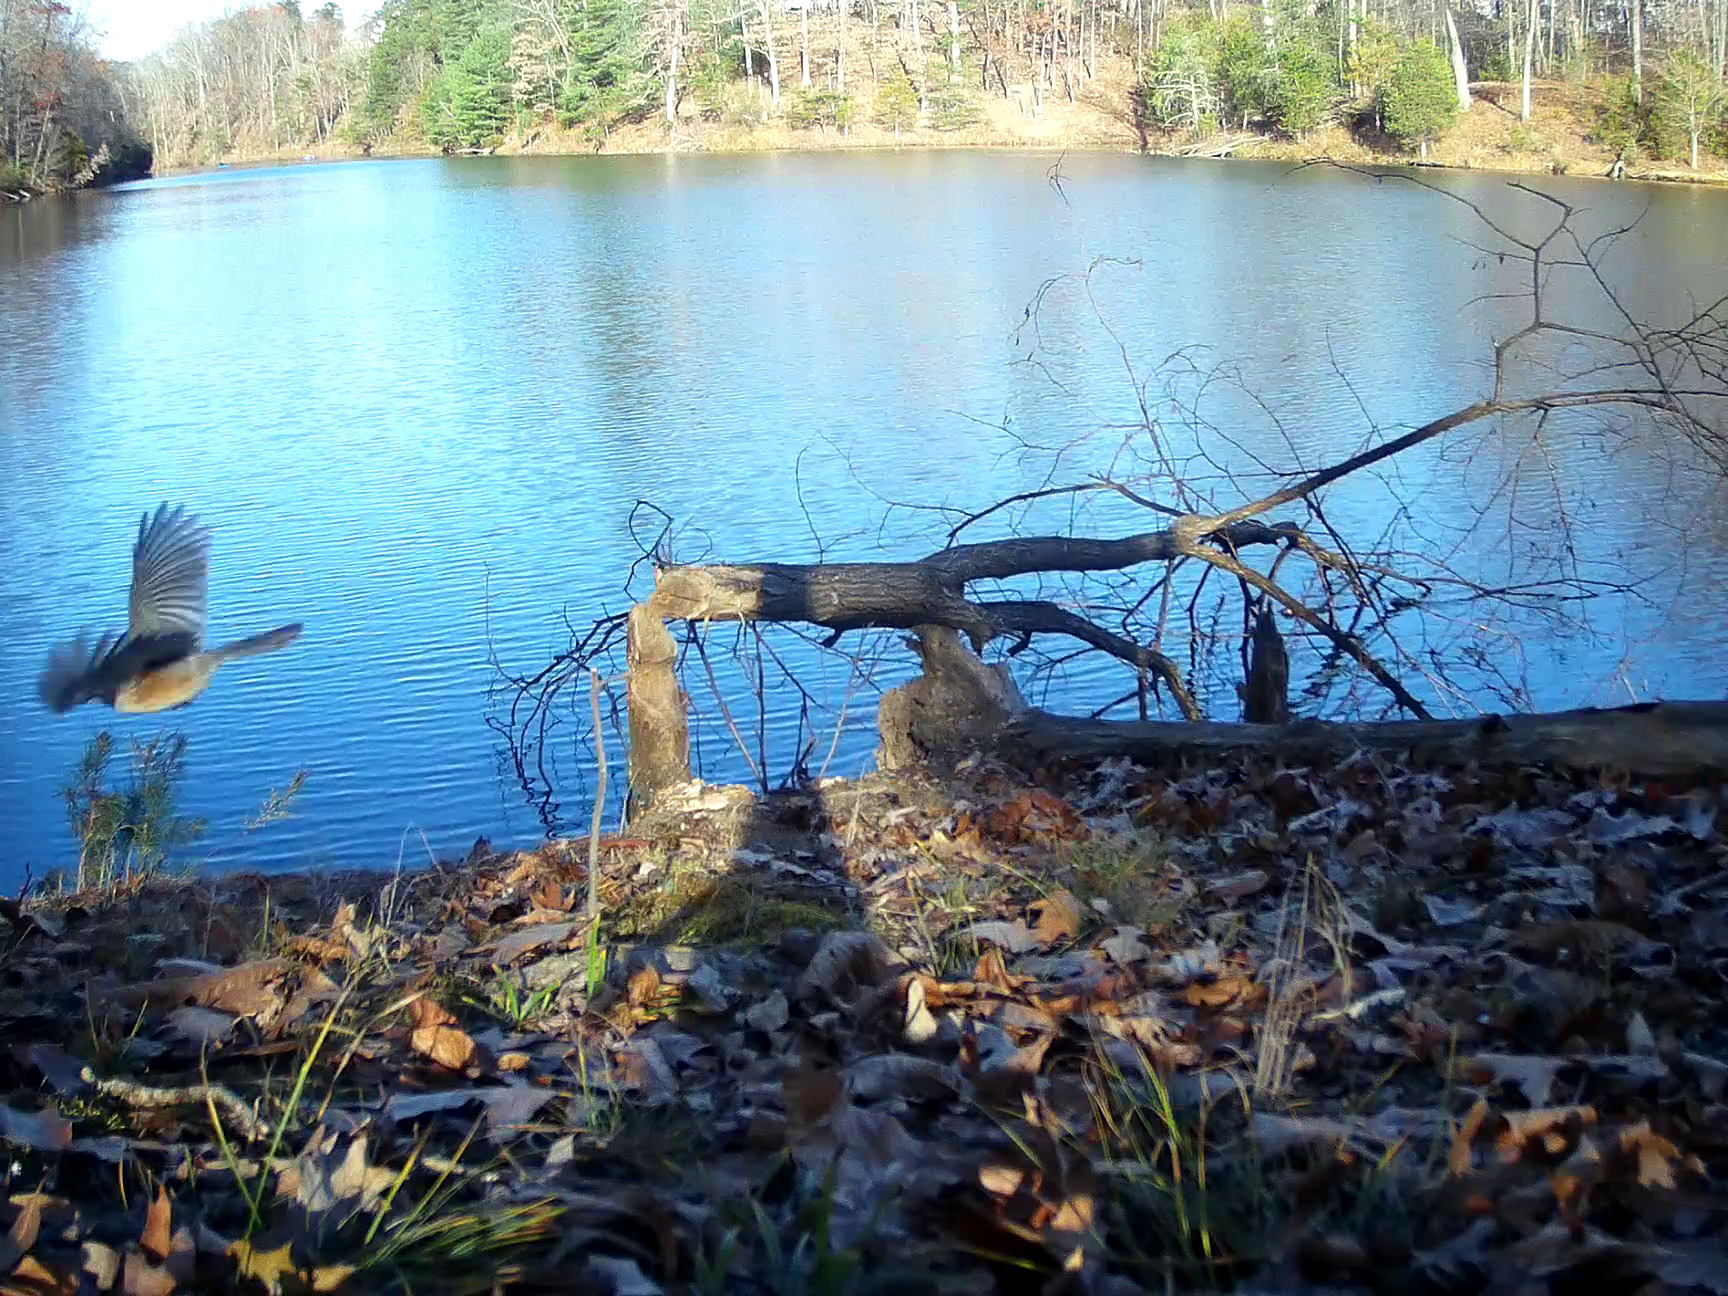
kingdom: Animalia
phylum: Chordata
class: Aves
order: Passeriformes
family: Paridae
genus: Baeolophus
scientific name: Baeolophus bicolor
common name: Tufted titmouse
